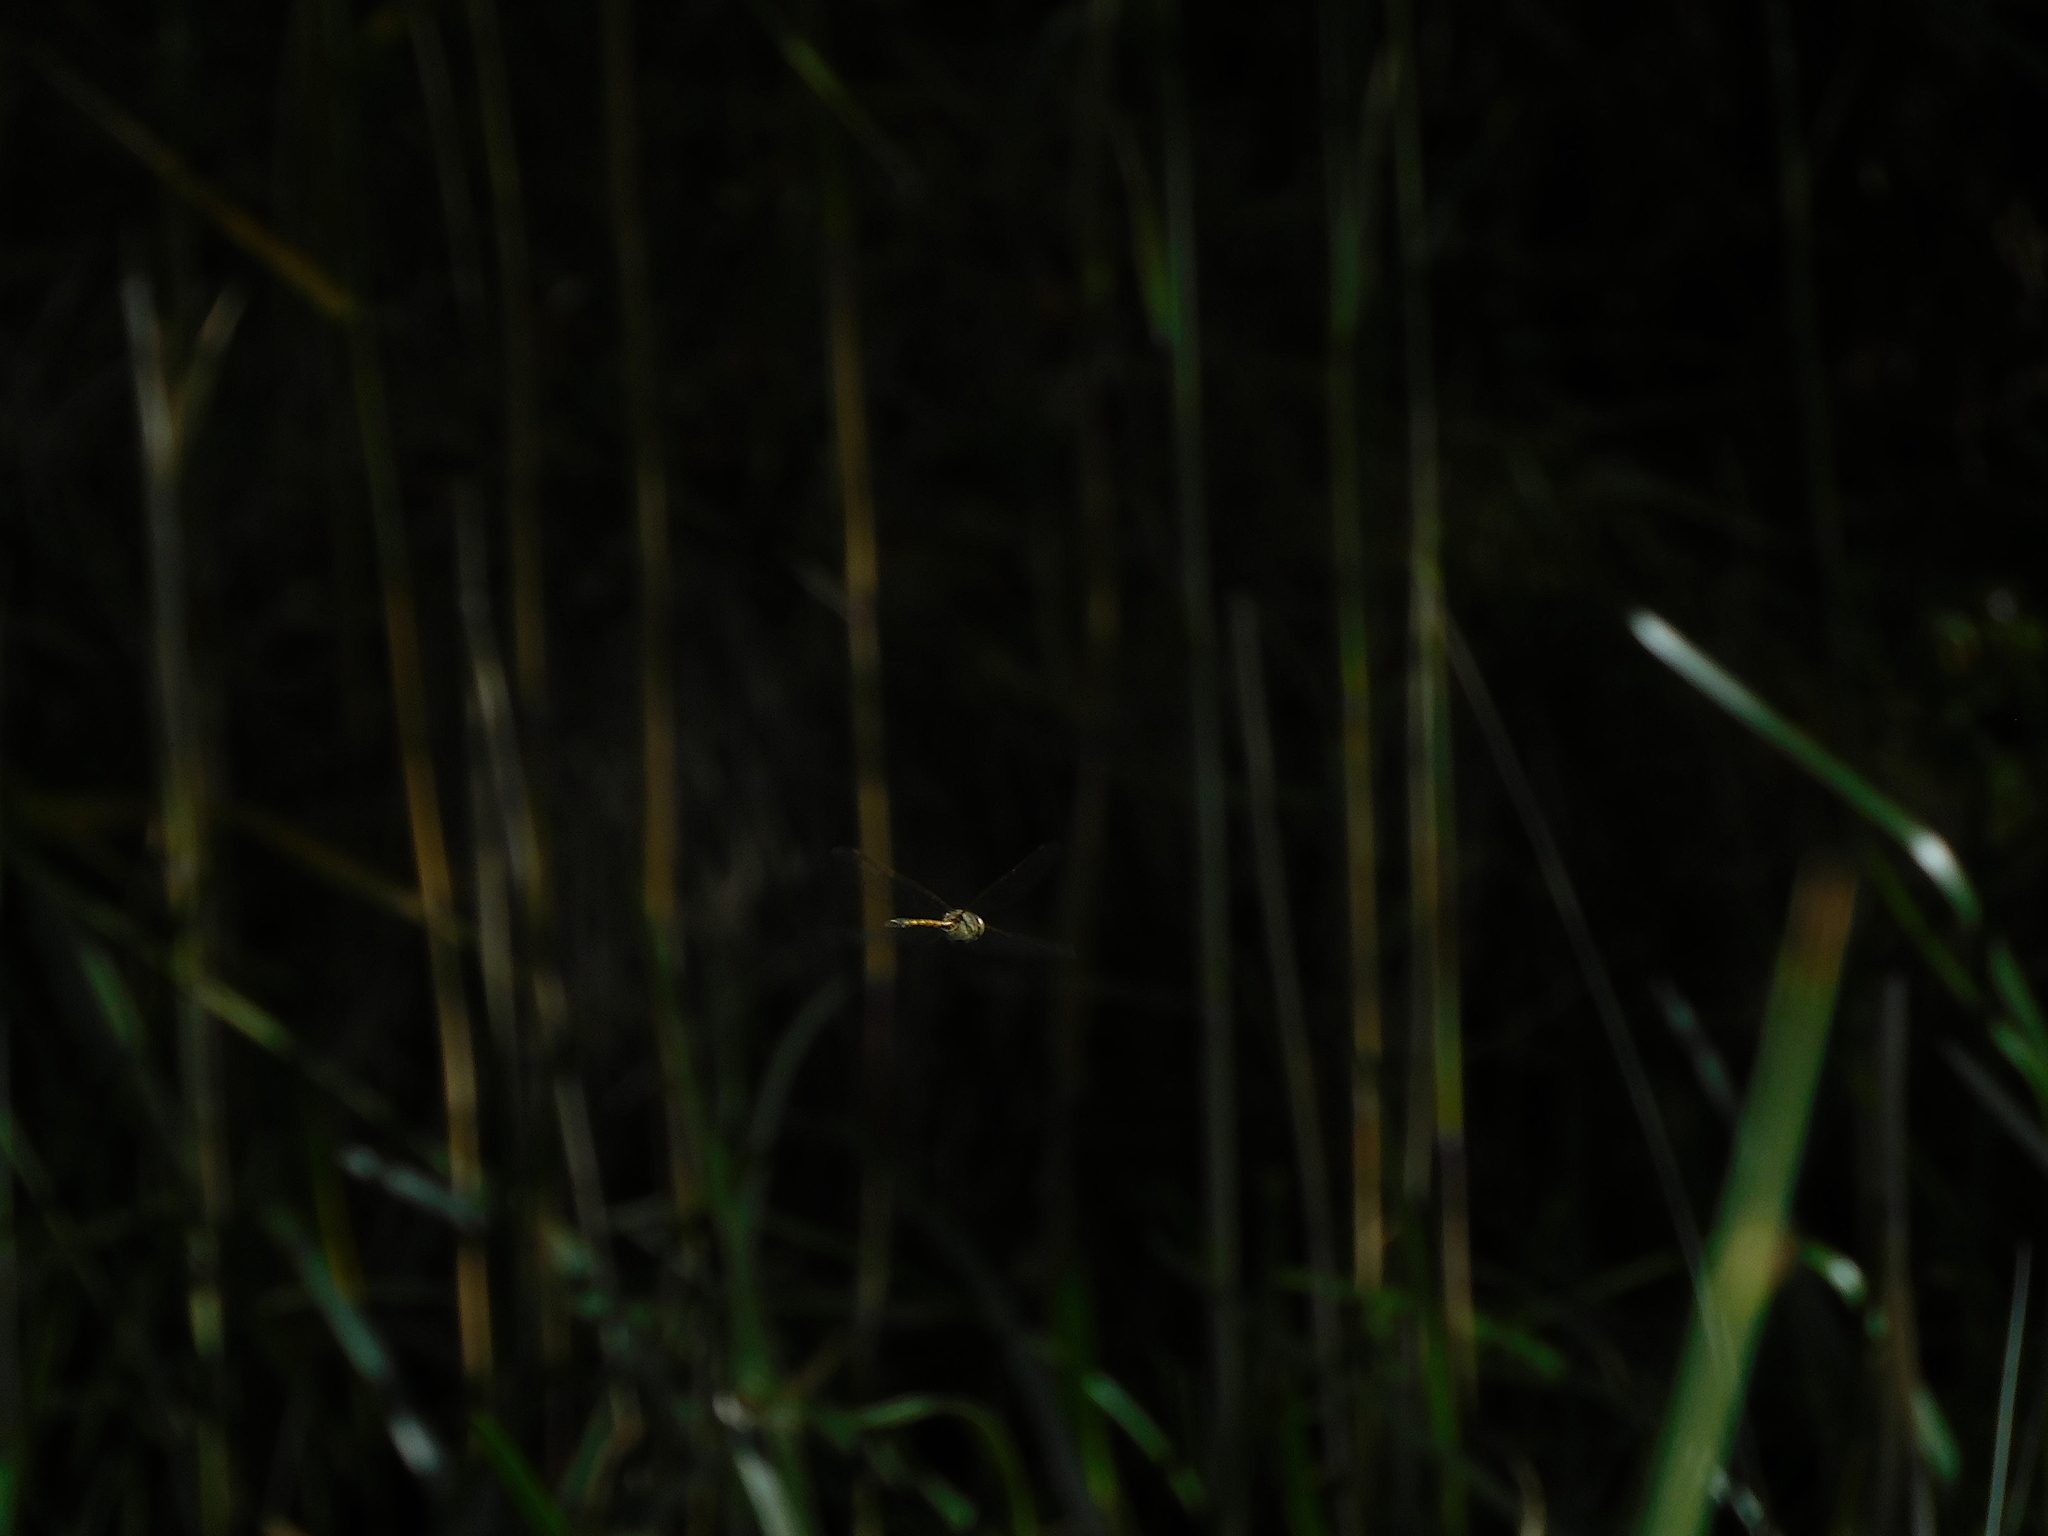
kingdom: Animalia
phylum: Arthropoda
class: Insecta
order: Odonata
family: Corduliidae
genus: Hemicordulia
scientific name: Hemicordulia australiae
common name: Sentry dragonfly
